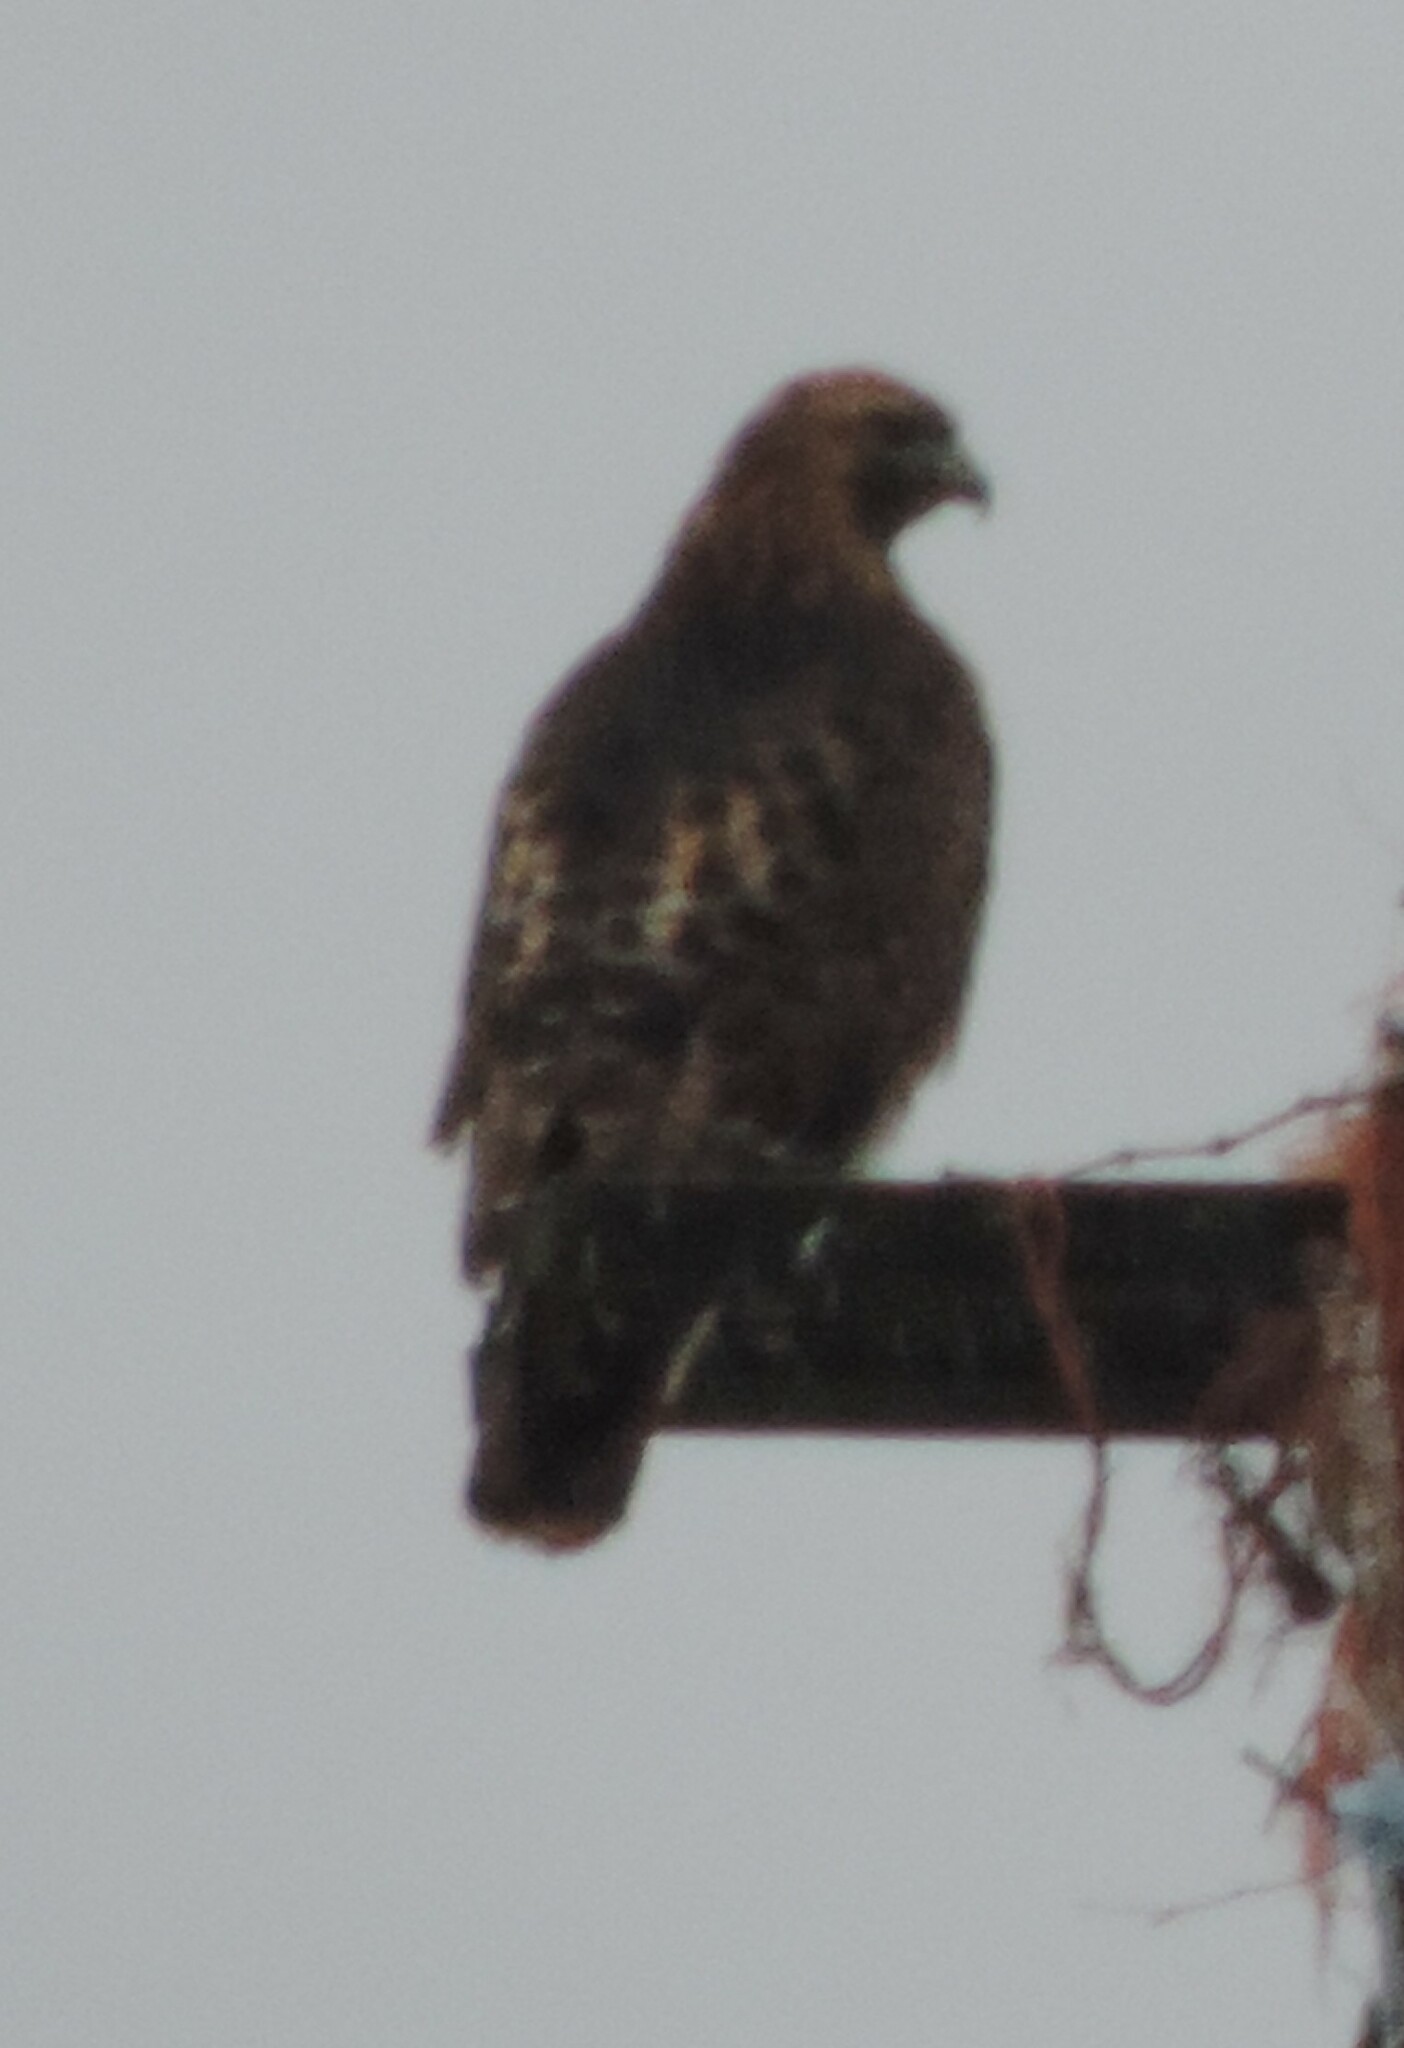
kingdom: Animalia
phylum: Chordata
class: Aves
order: Accipitriformes
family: Accipitridae
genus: Buteo
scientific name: Buteo jamaicensis
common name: Red-tailed hawk
